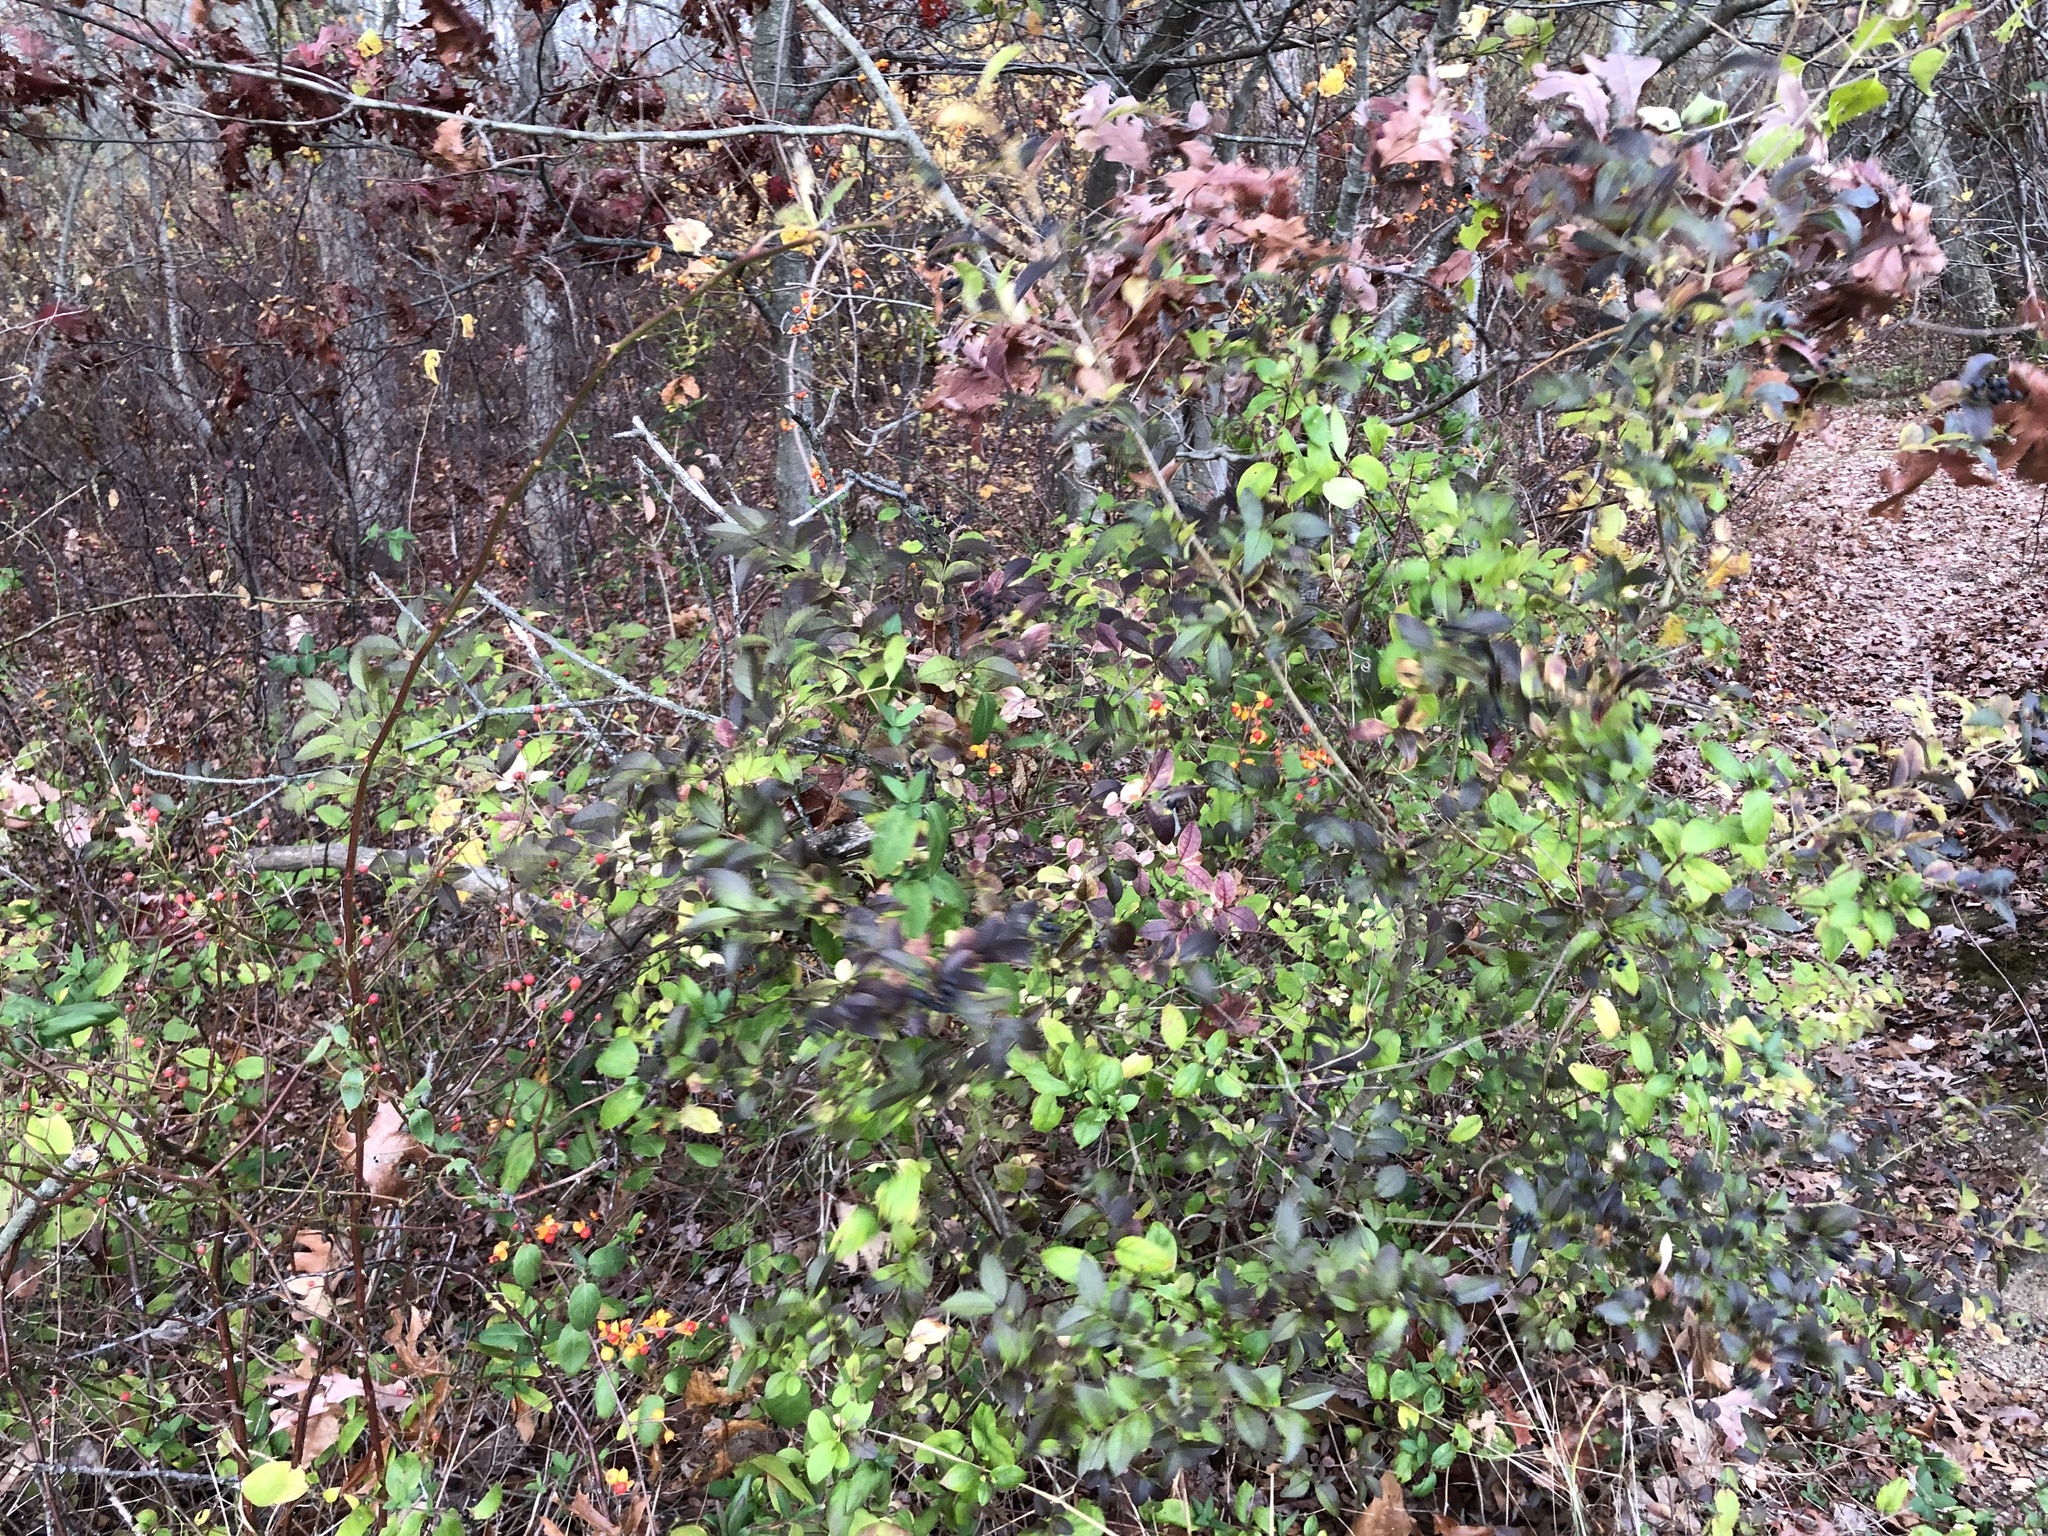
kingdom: Plantae
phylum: Tracheophyta
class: Magnoliopsida
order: Lamiales
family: Oleaceae
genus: Ligustrum
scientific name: Ligustrum ovalifolium
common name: California privet
